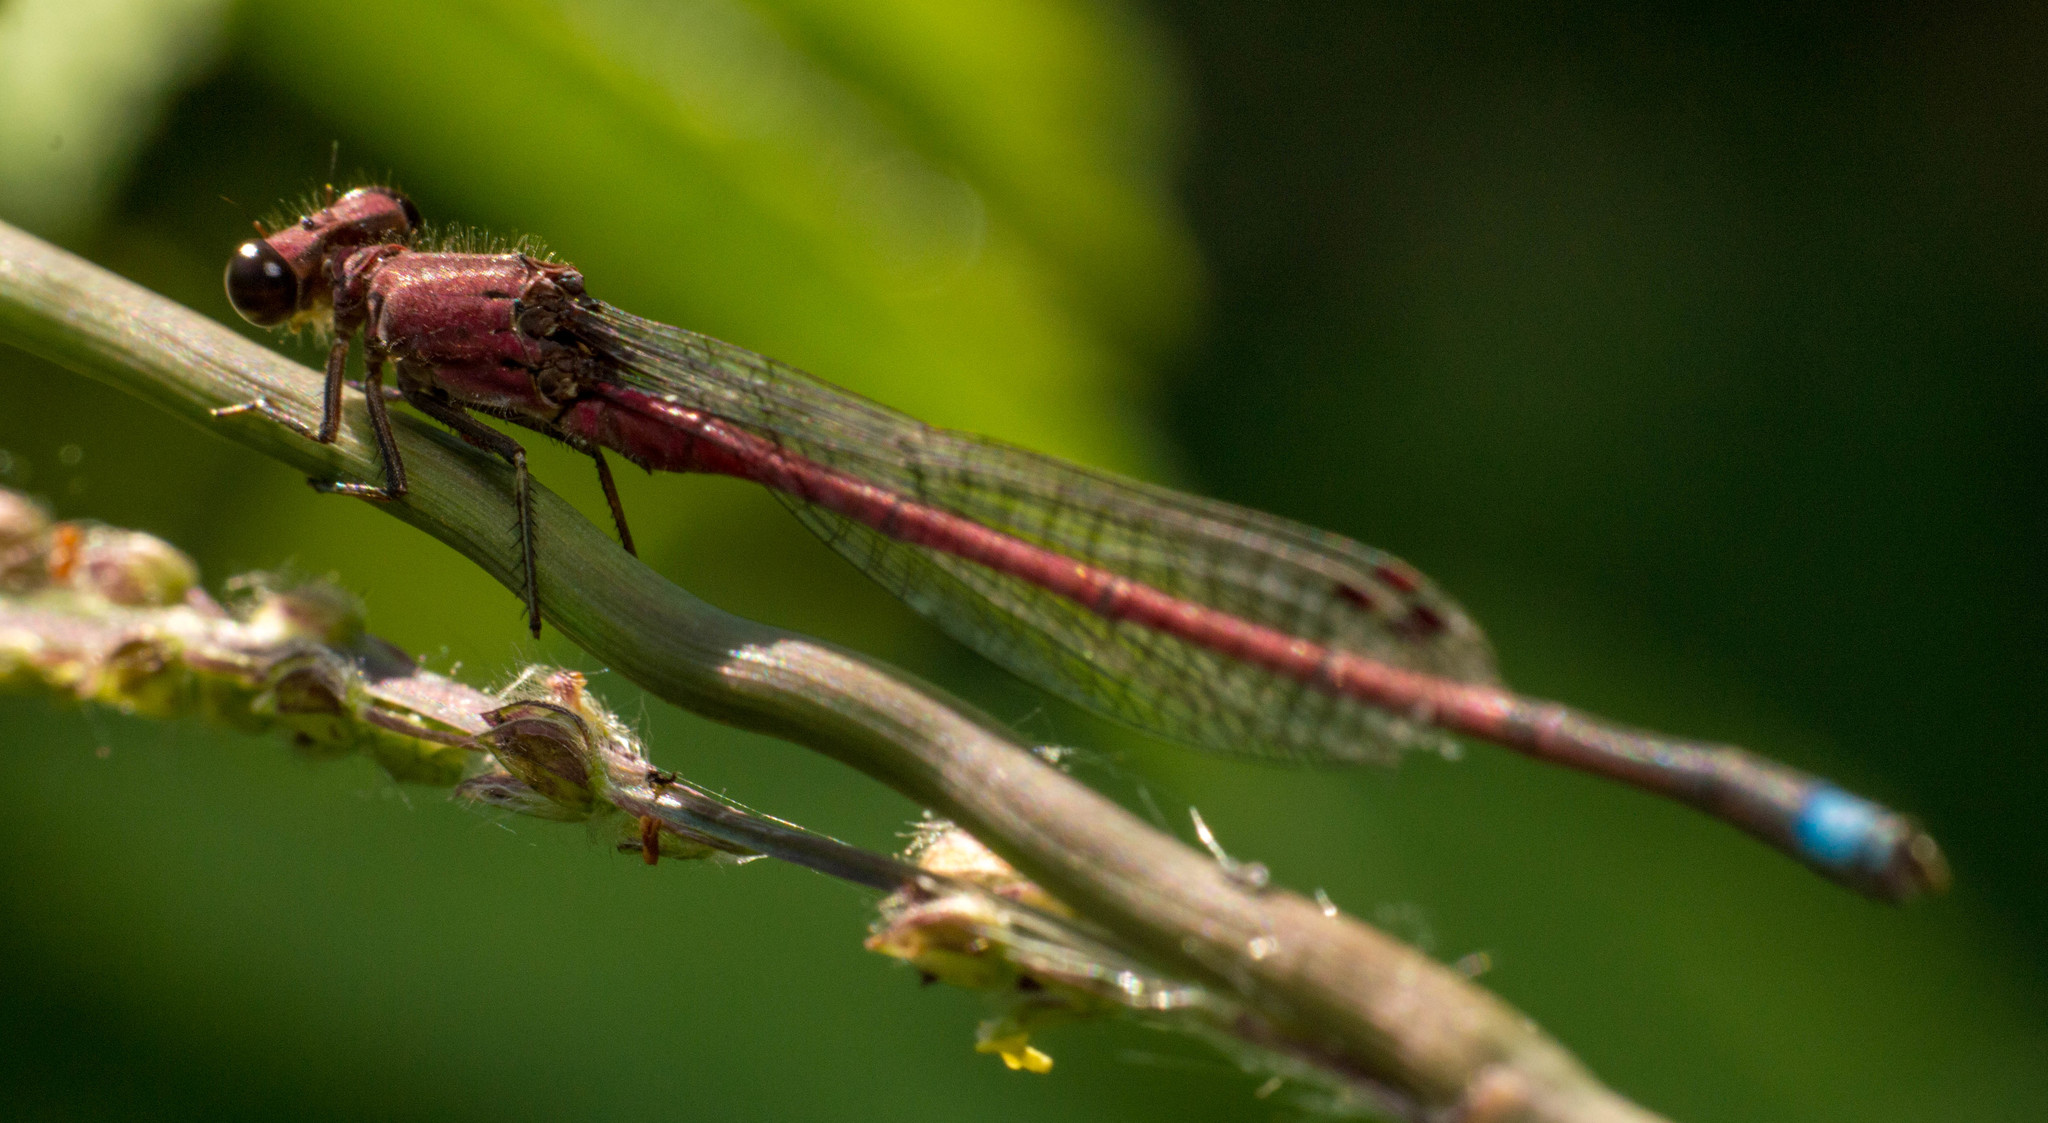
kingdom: Animalia
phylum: Arthropoda
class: Insecta
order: Odonata
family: Coenagrionidae
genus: Oxyagrion
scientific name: Oxyagrion terminale
